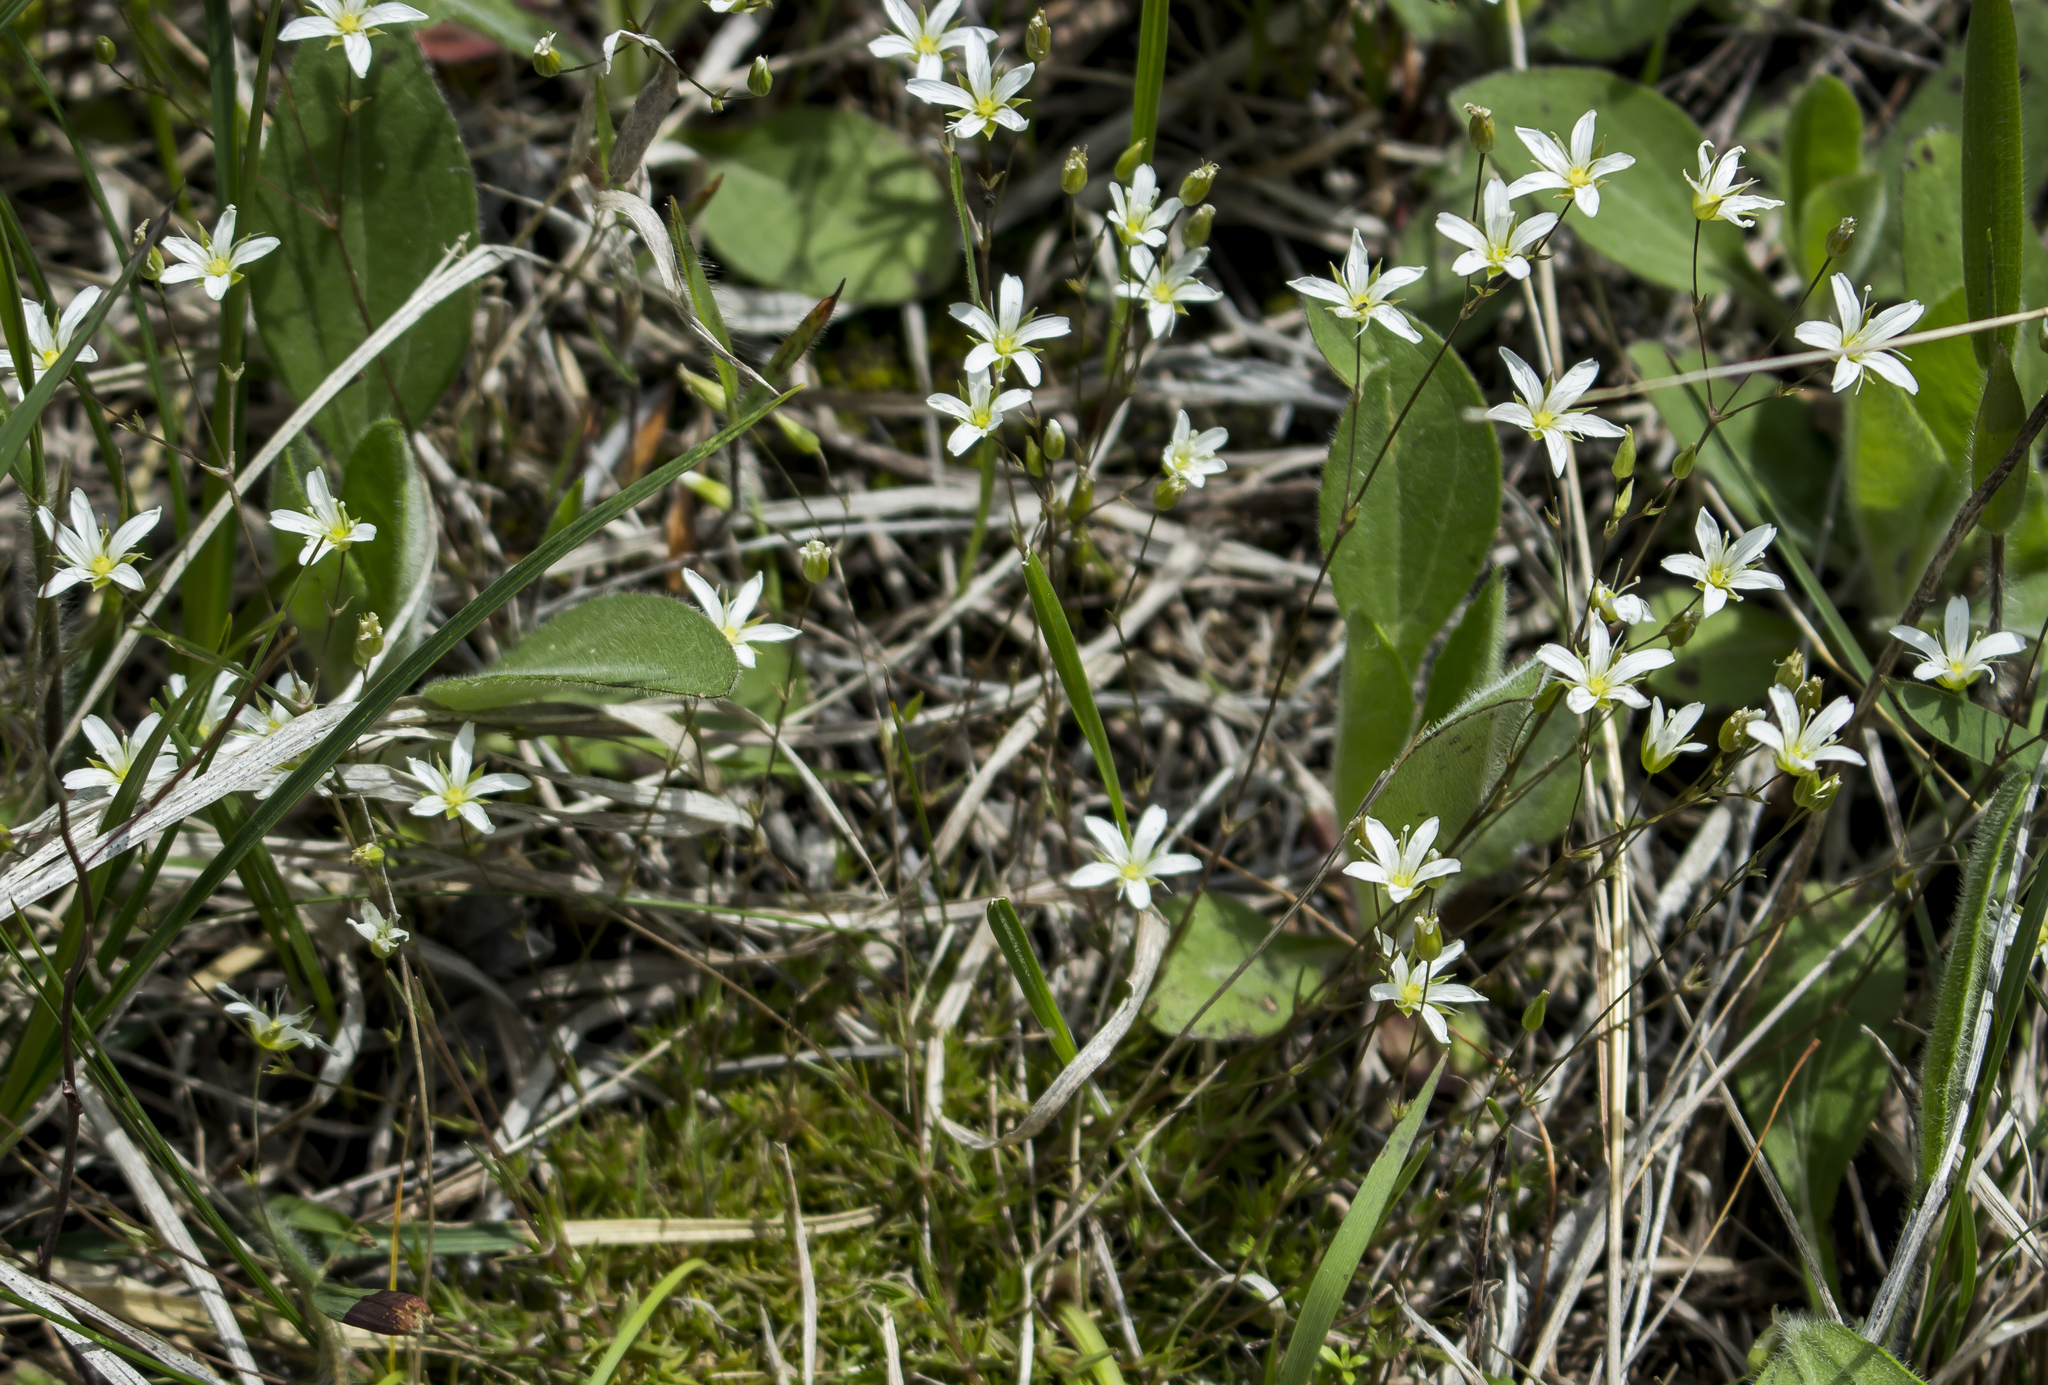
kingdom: Plantae
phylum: Tracheophyta
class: Magnoliopsida
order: Caryophyllales
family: Caryophyllaceae
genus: Sabulina
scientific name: Sabulina michauxii
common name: Michaux's stitchwort
